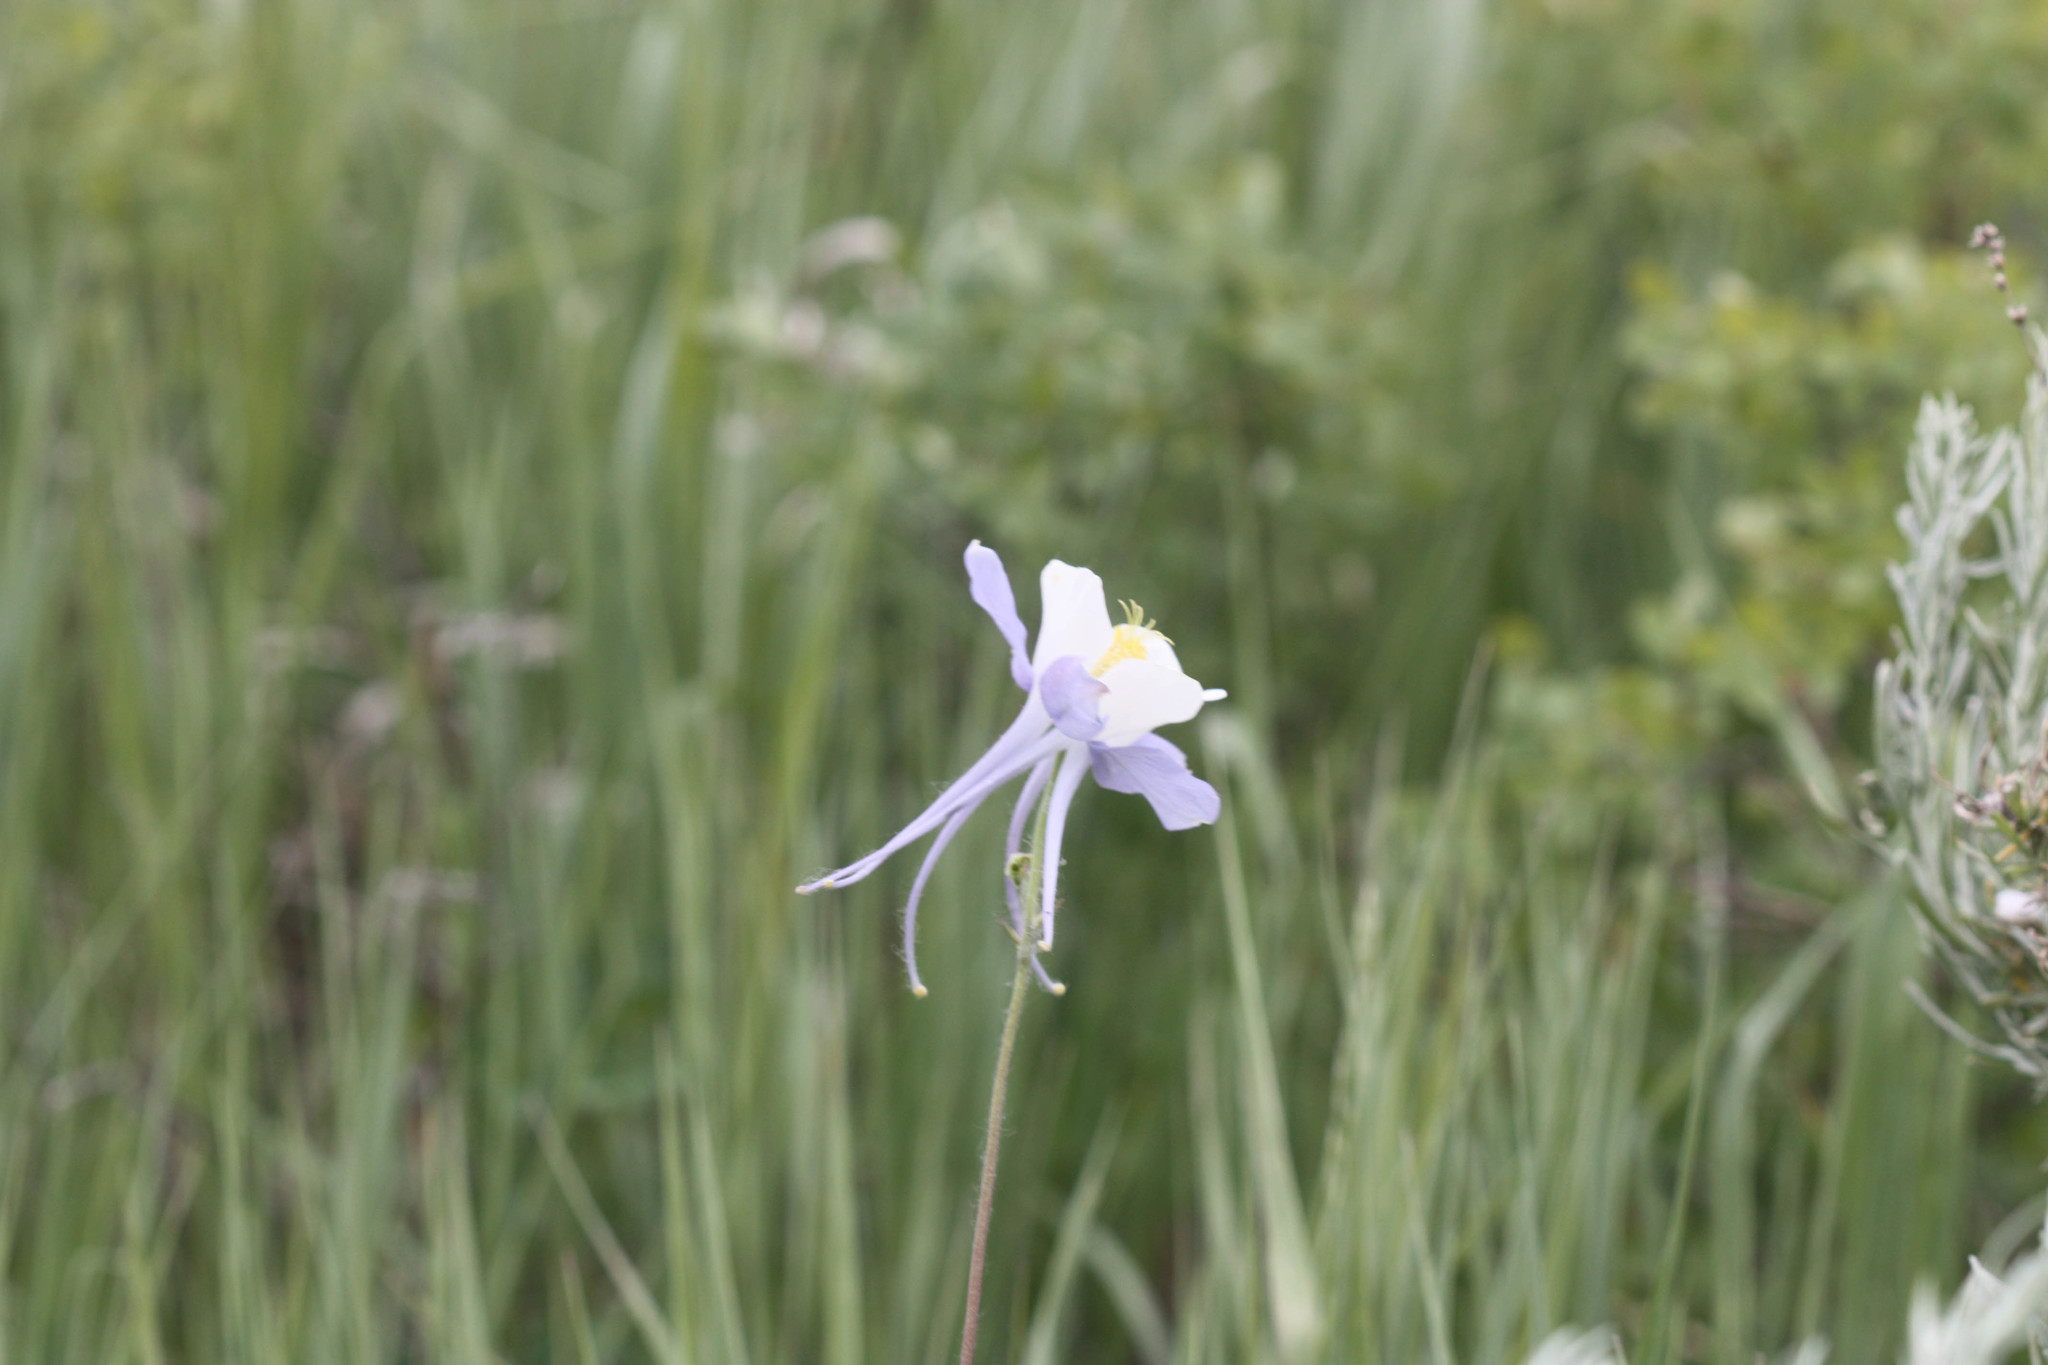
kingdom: Plantae
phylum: Tracheophyta
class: Magnoliopsida
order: Ranunculales
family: Ranunculaceae
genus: Aquilegia
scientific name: Aquilegia coerulea
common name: Rocky mountain columbine
